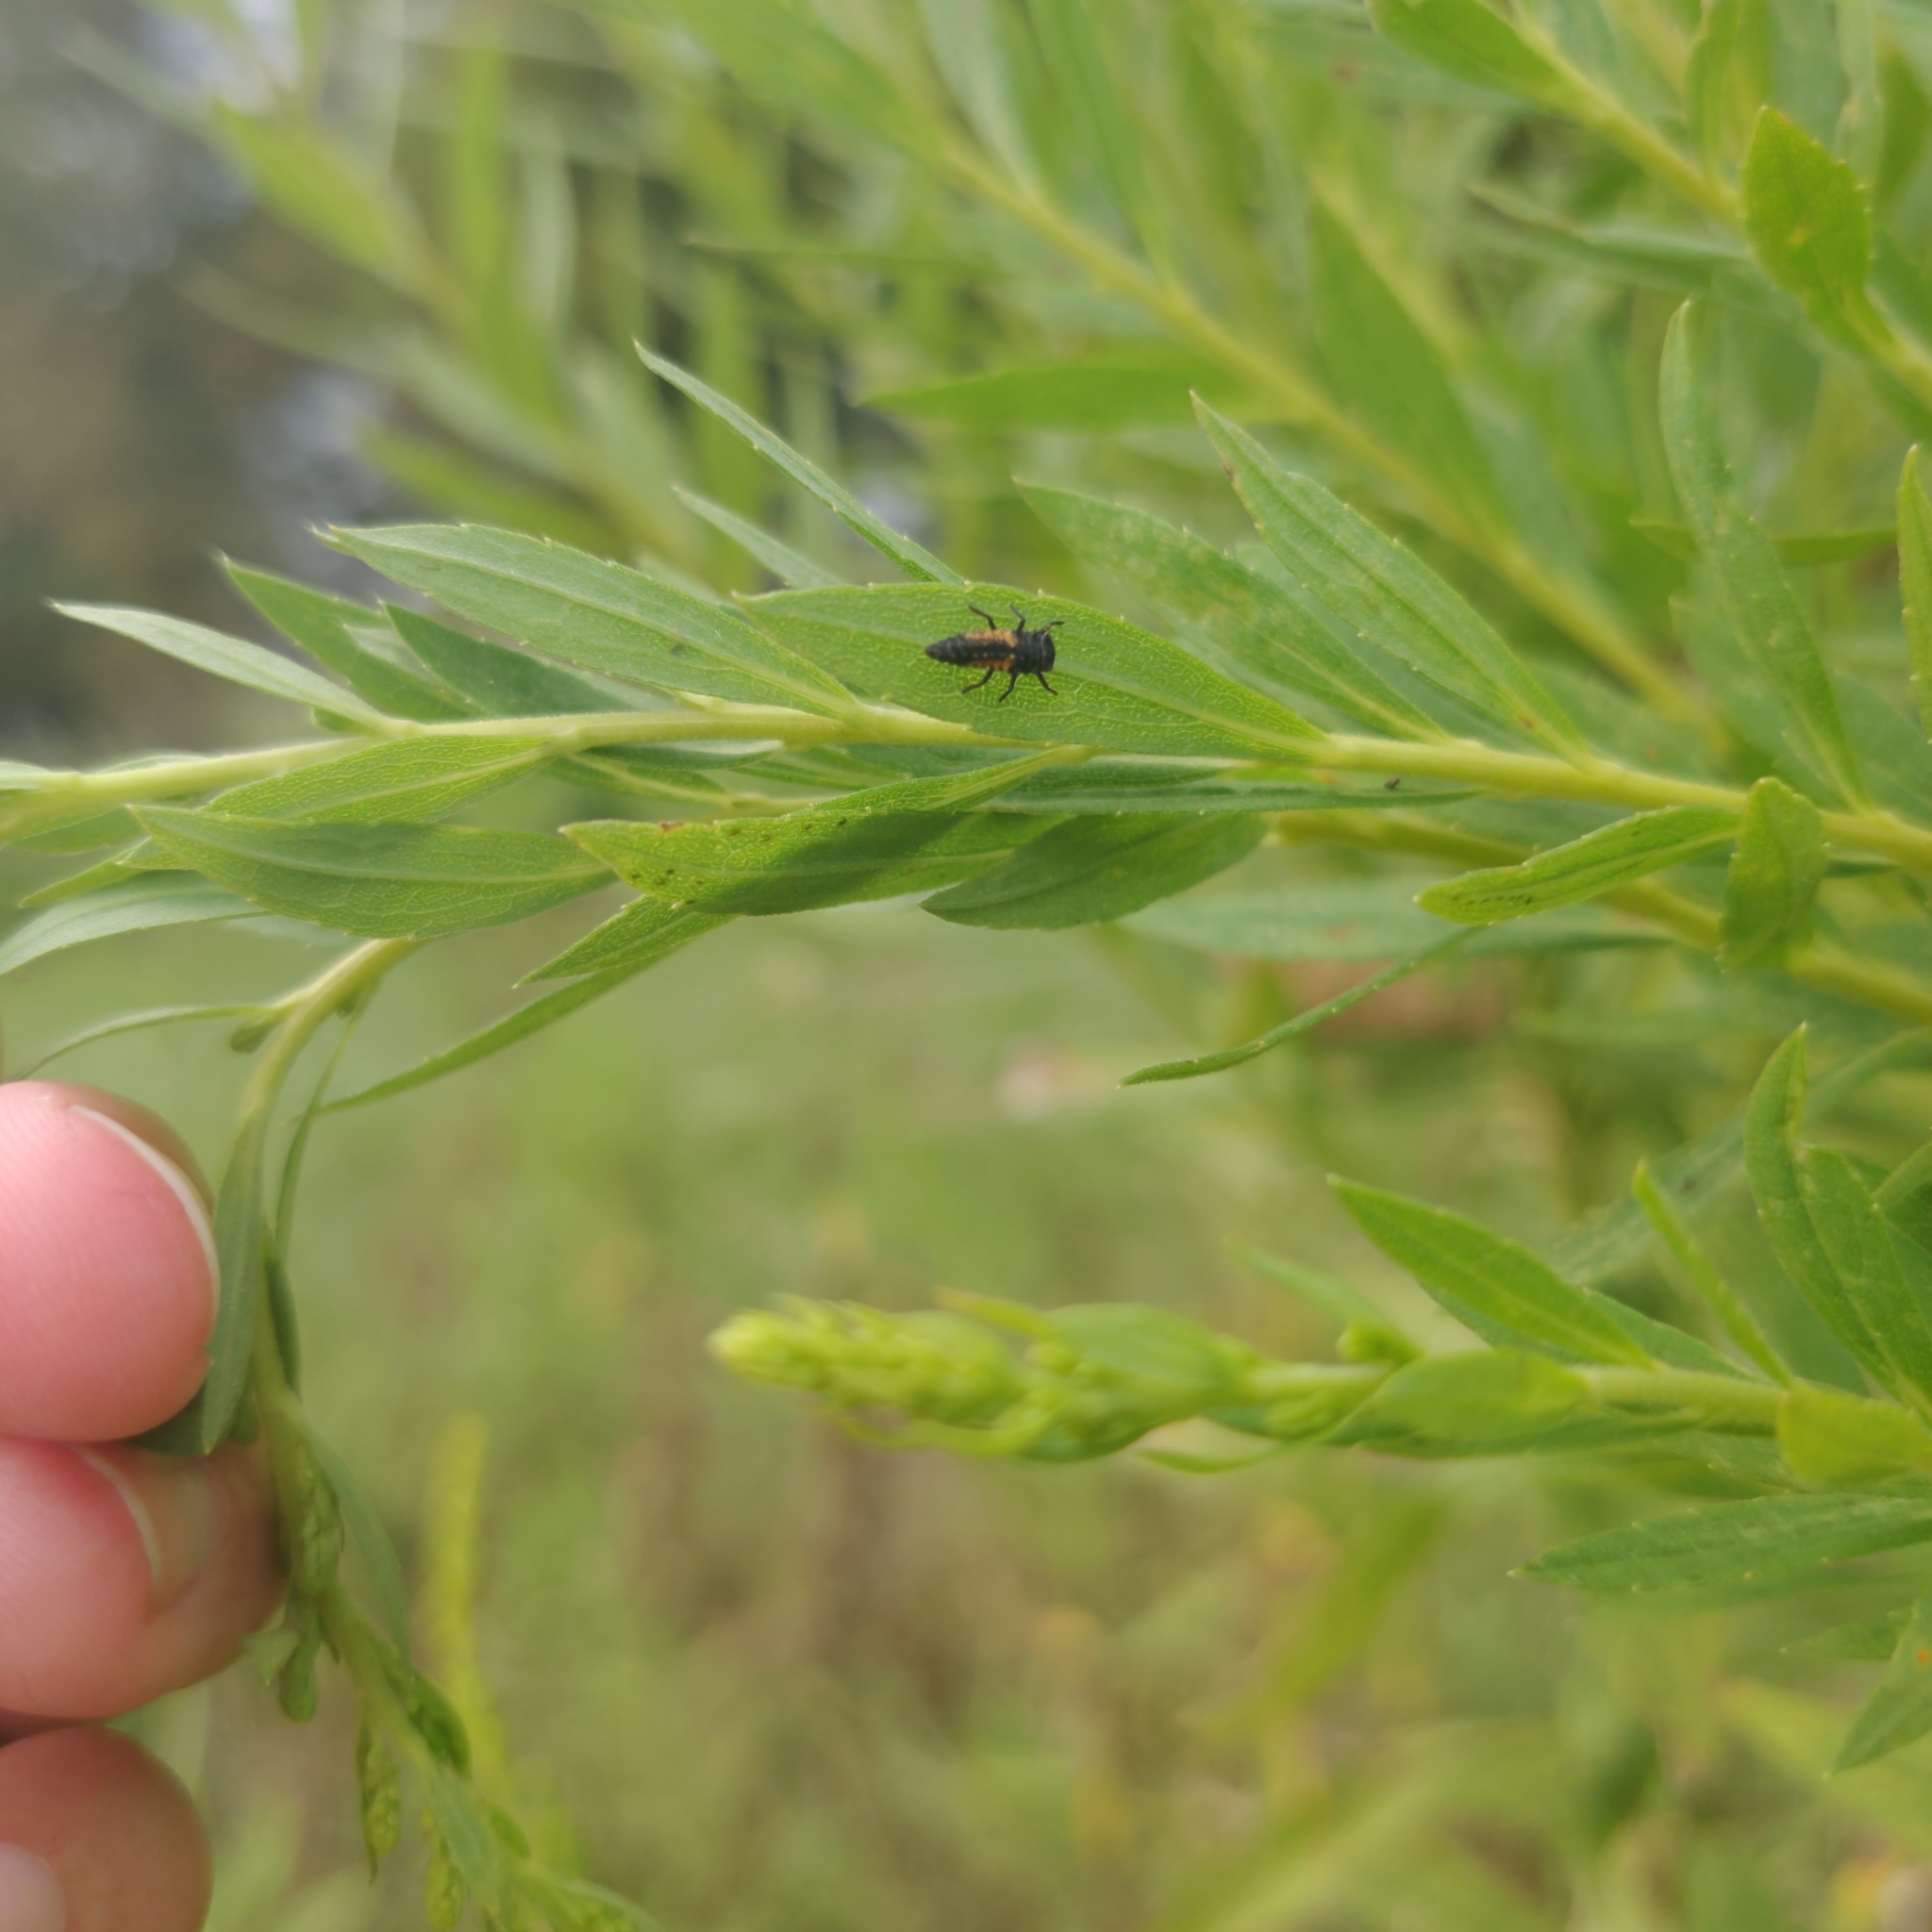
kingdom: Animalia
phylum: Arthropoda
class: Insecta
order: Coleoptera
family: Coccinellidae
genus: Harmonia
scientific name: Harmonia axyridis
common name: Harlequin ladybird
